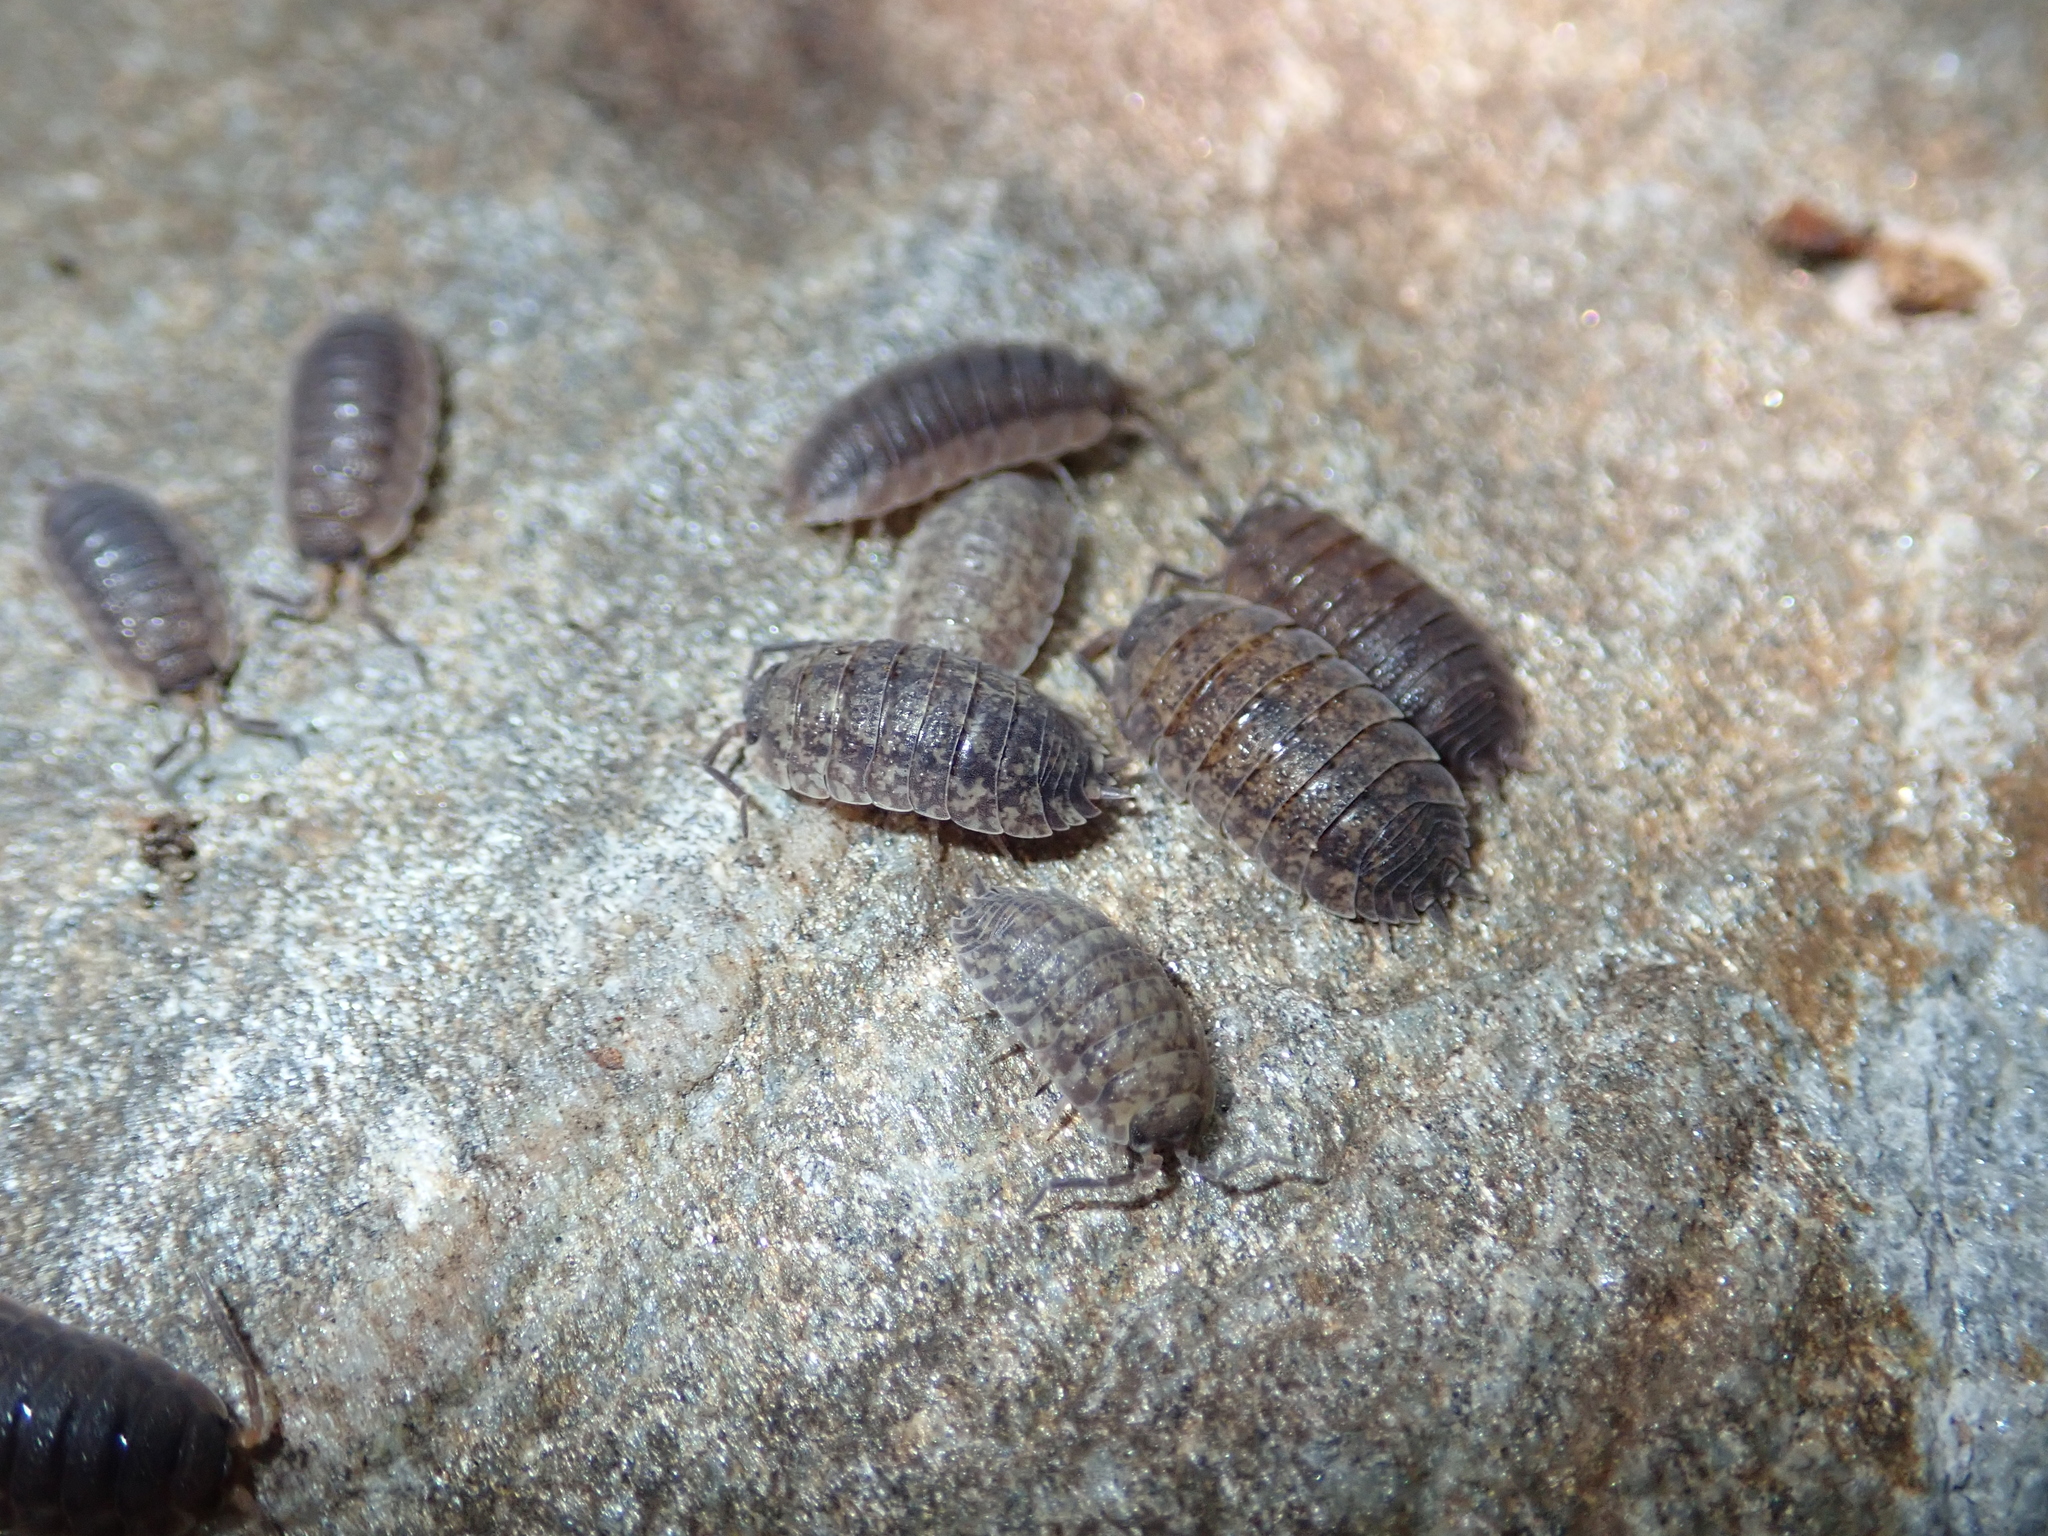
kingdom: Animalia
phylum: Arthropoda
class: Malacostraca
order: Isopoda
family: Porcellionidae
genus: Porcellio
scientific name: Porcellio scaber
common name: Common rough woodlouse
